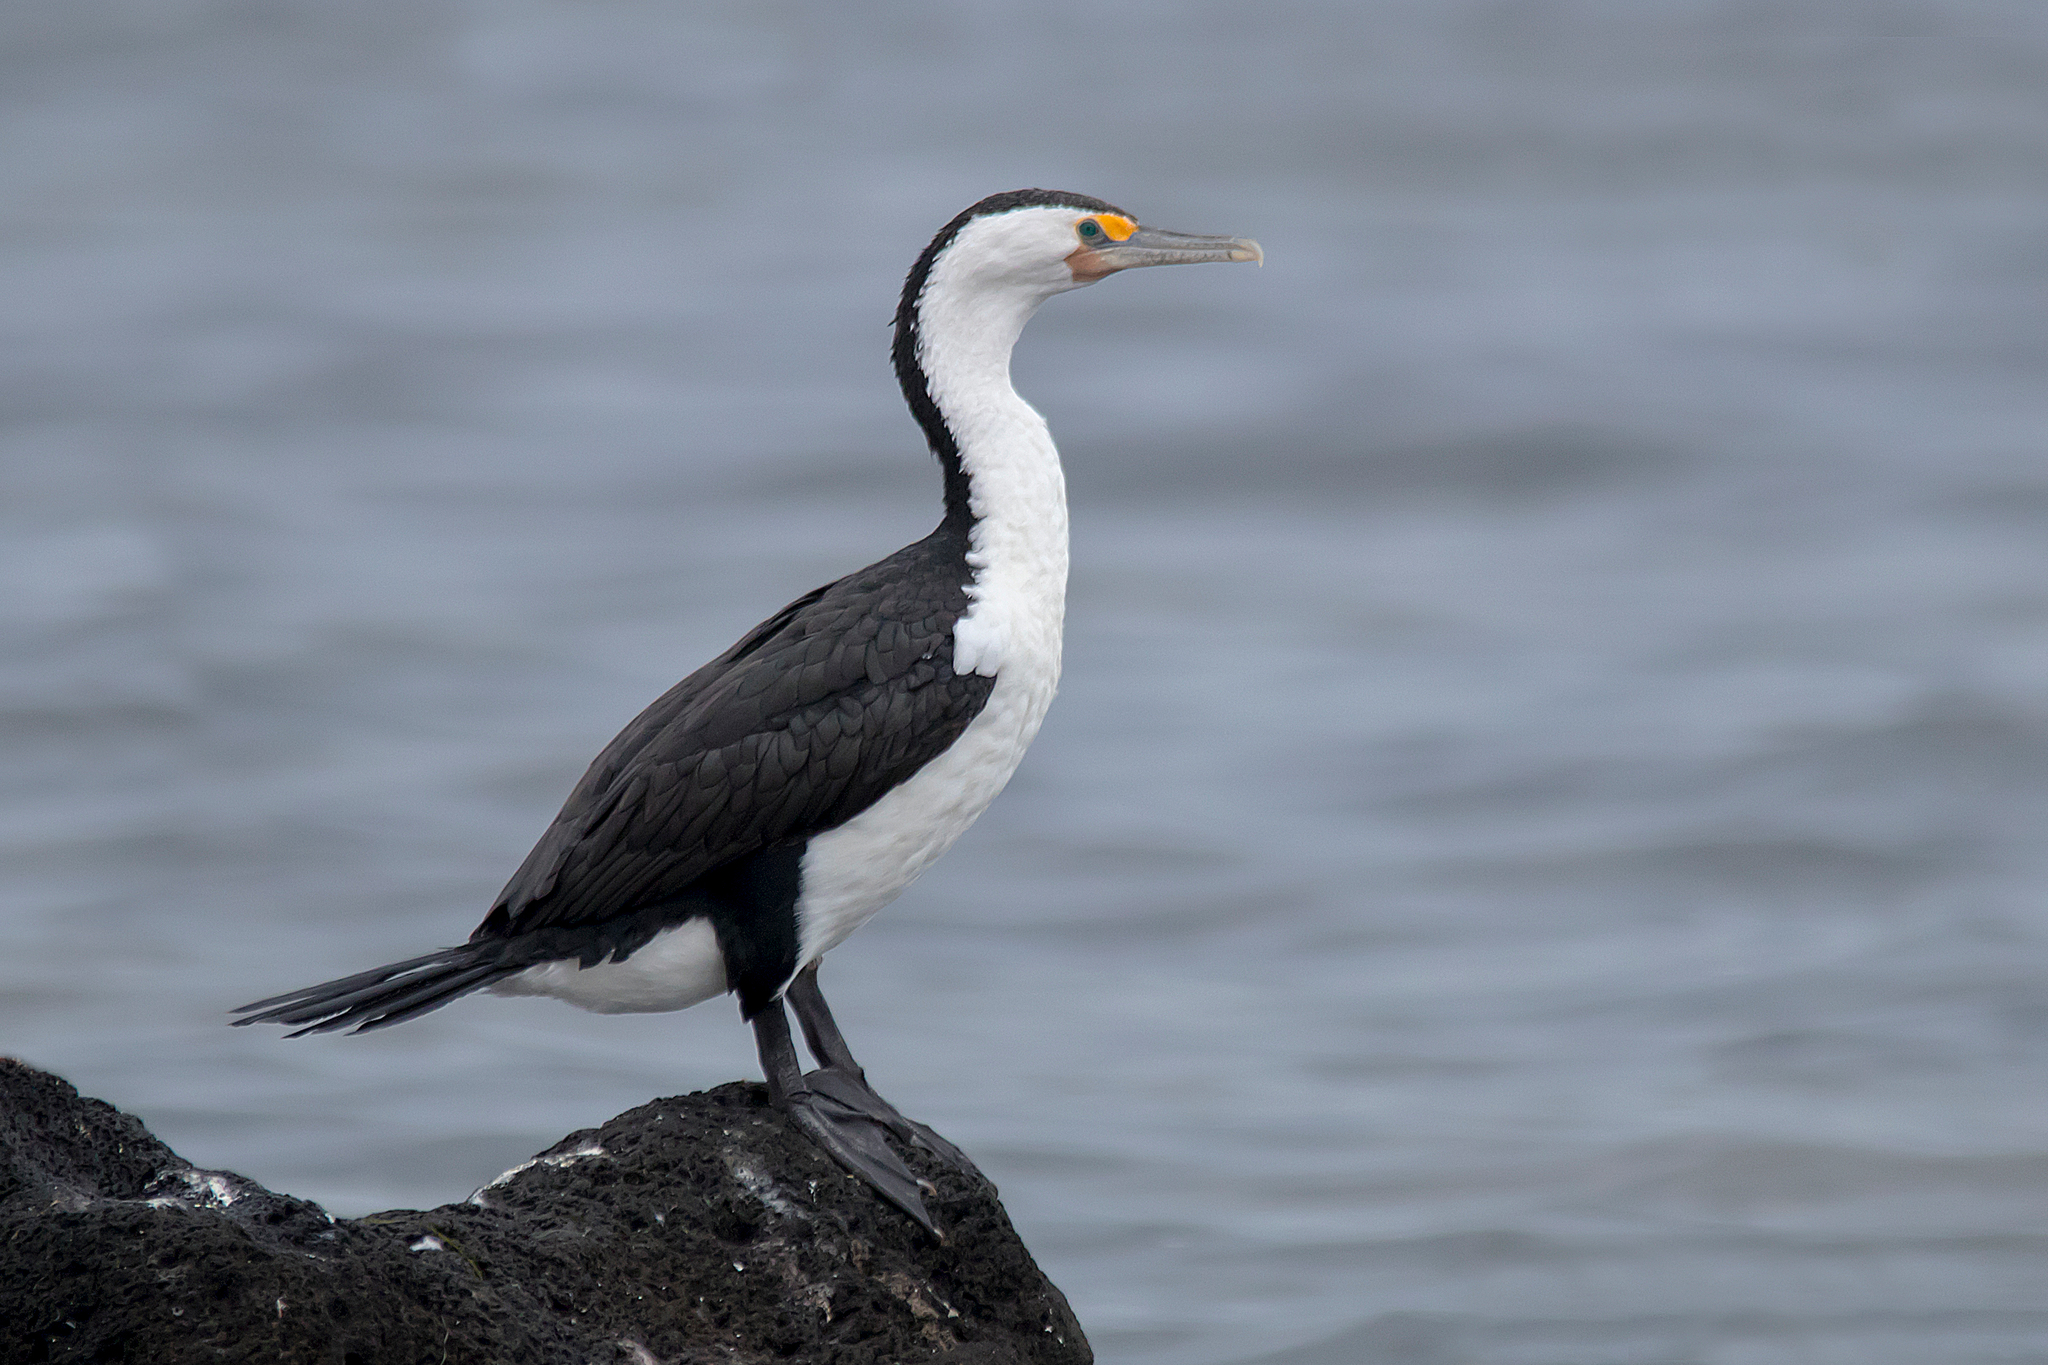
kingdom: Animalia
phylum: Chordata
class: Aves
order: Suliformes
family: Phalacrocoracidae
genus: Phalacrocorax
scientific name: Phalacrocorax varius
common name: Pied cormorant
